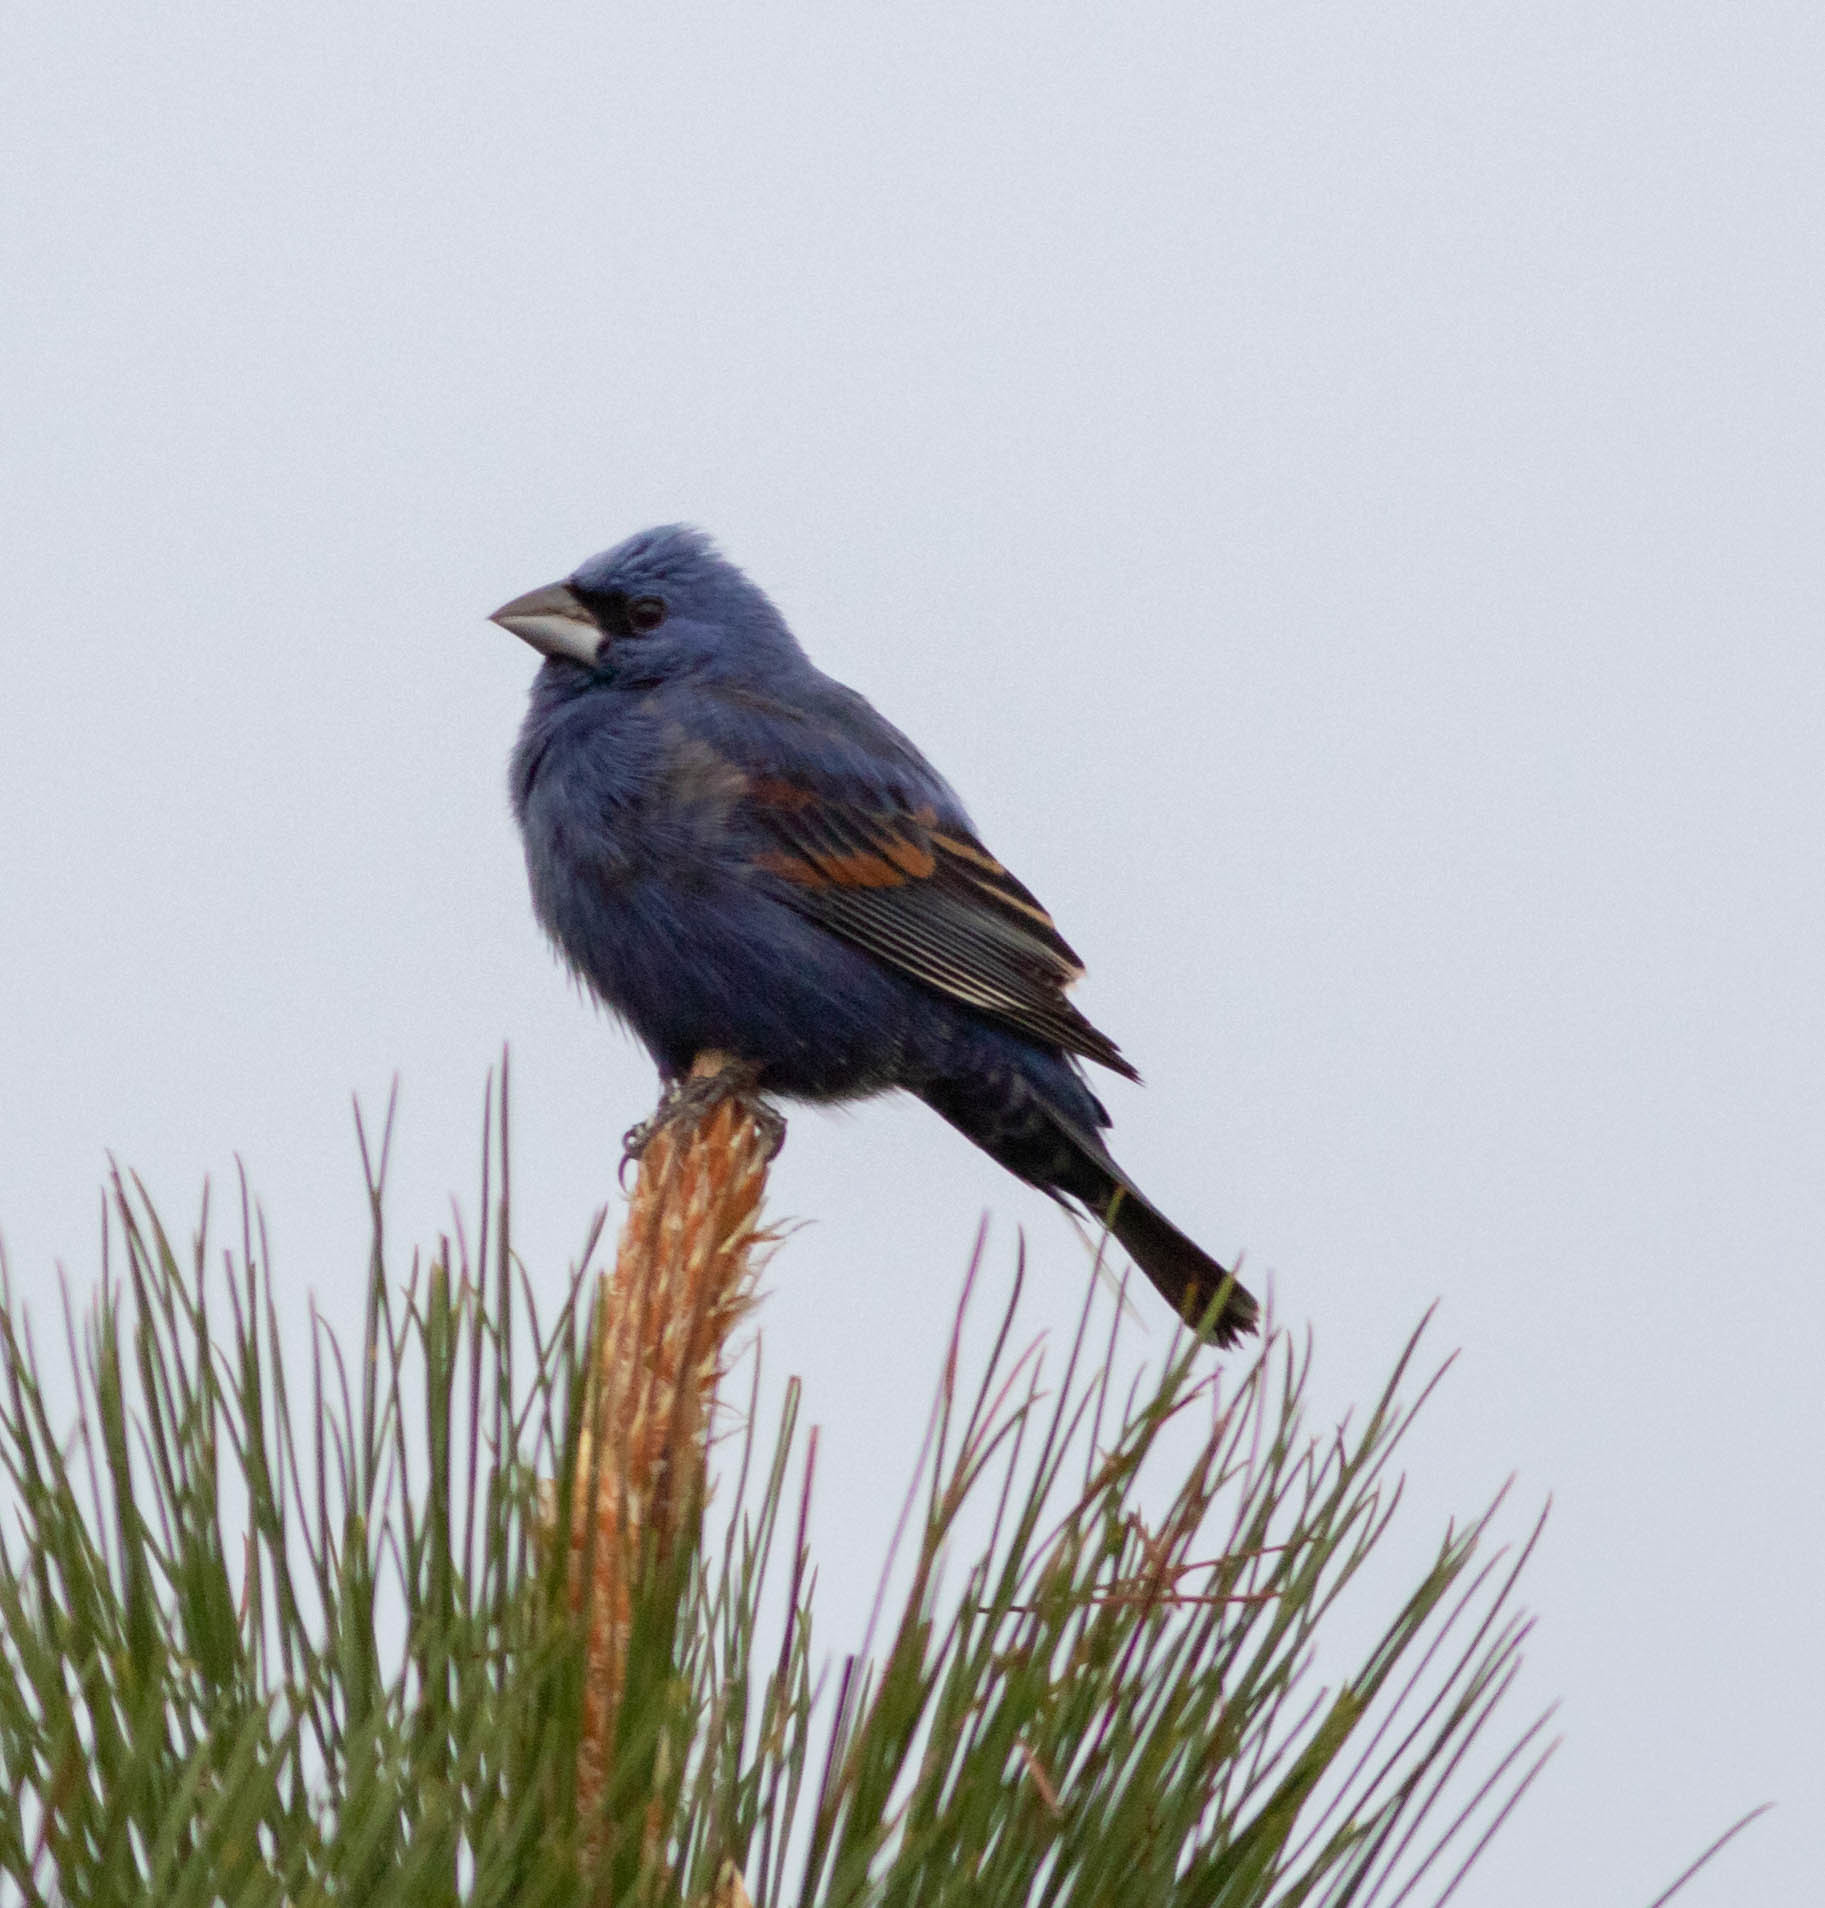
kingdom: Animalia
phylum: Chordata
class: Aves
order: Passeriformes
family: Cardinalidae
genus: Passerina
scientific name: Passerina caerulea
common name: Blue grosbeak
